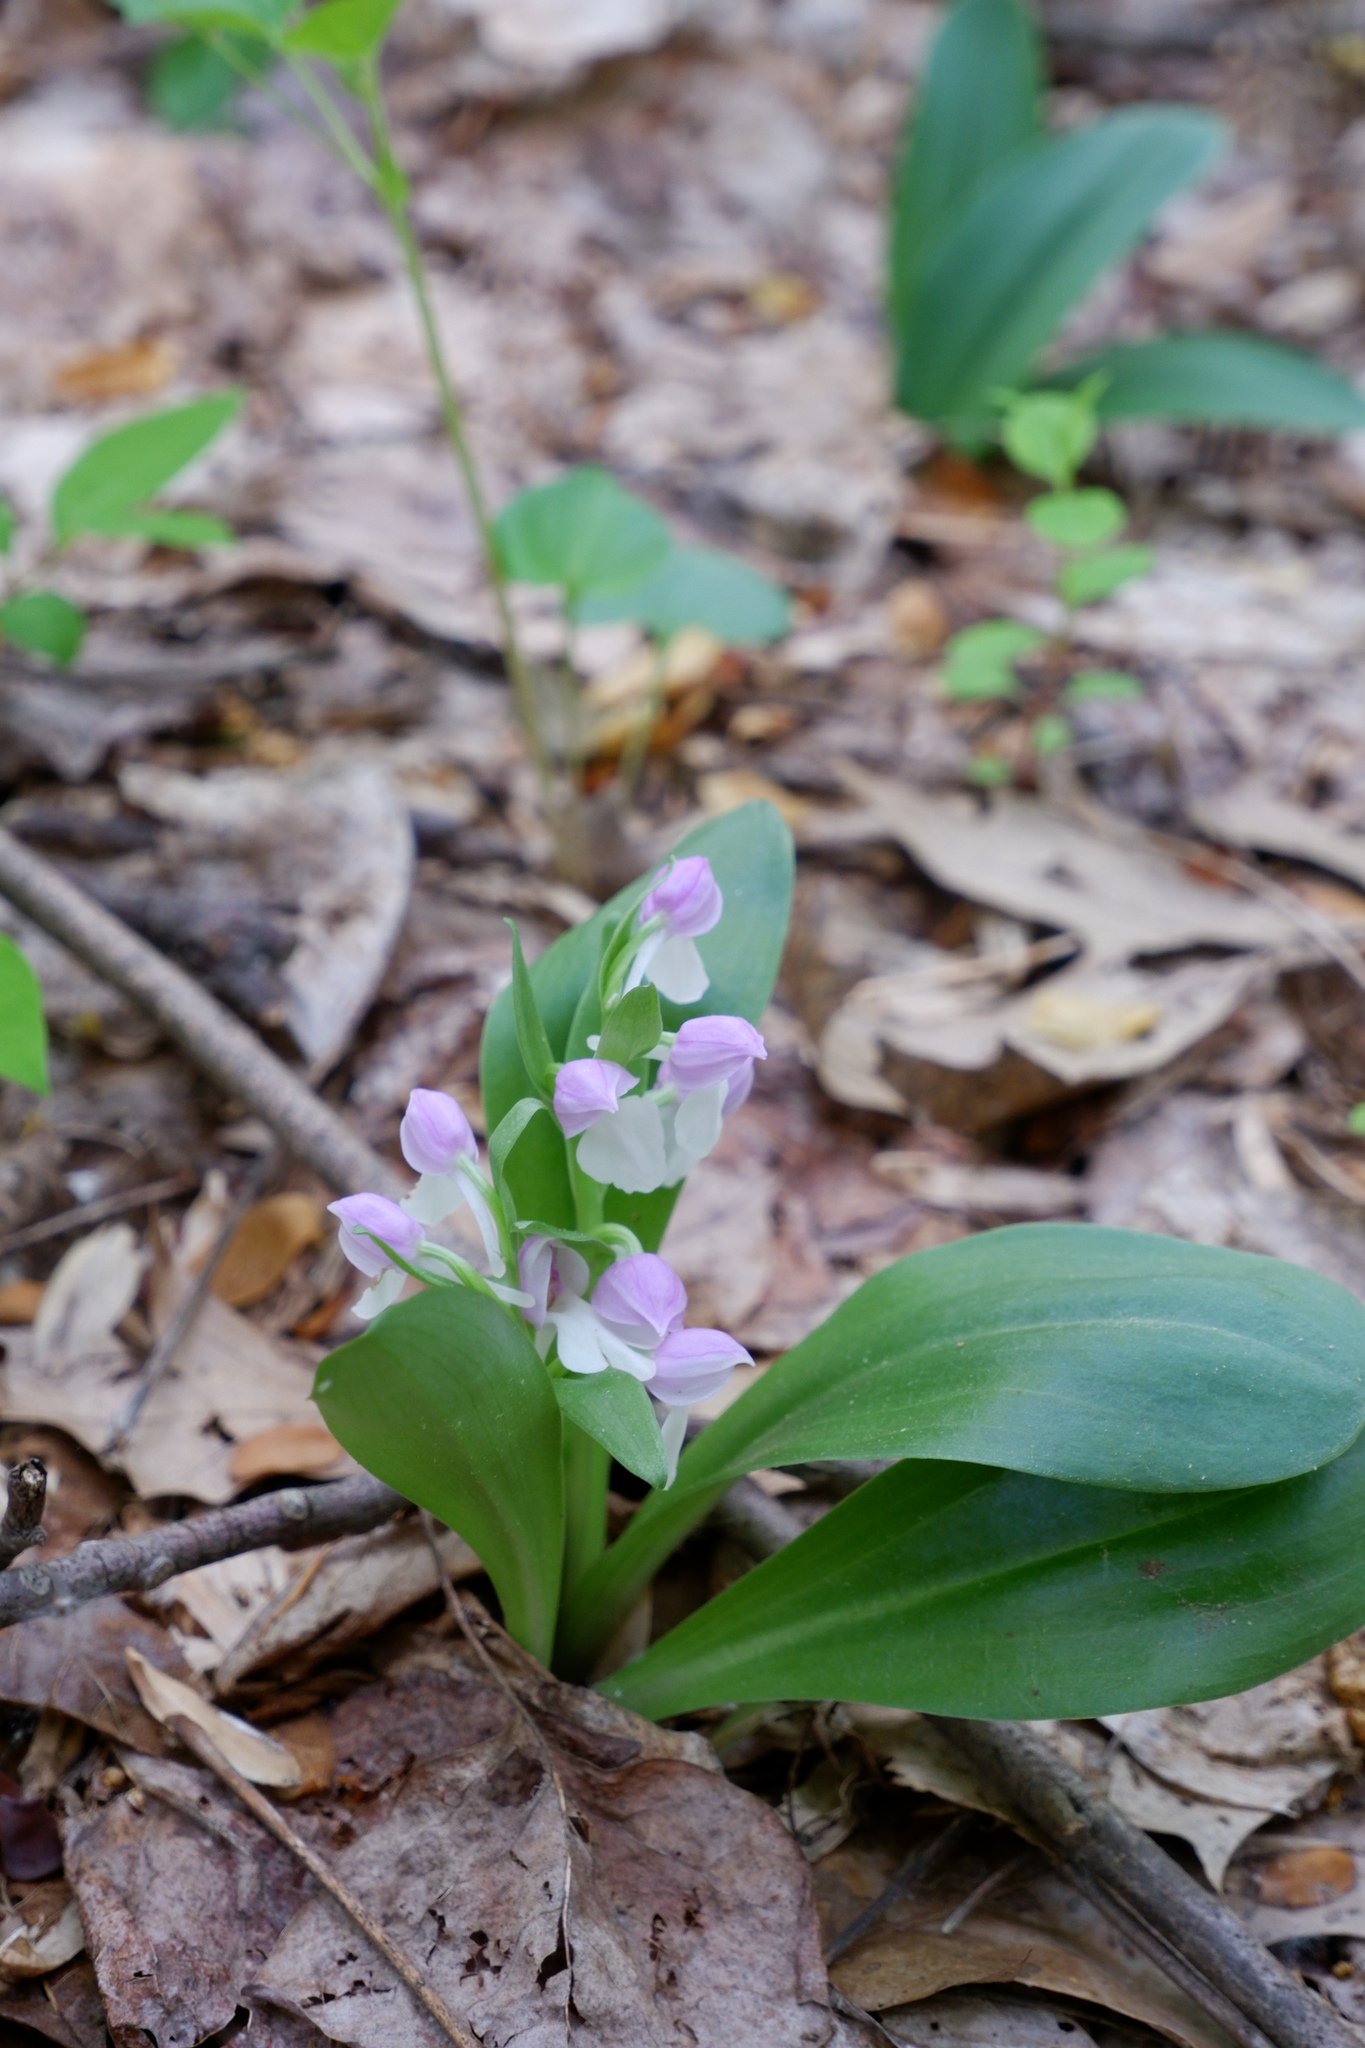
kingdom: Plantae
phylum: Tracheophyta
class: Liliopsida
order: Asparagales
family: Orchidaceae
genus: Galearis
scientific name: Galearis spectabilis
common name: Purple-hooded orchis
